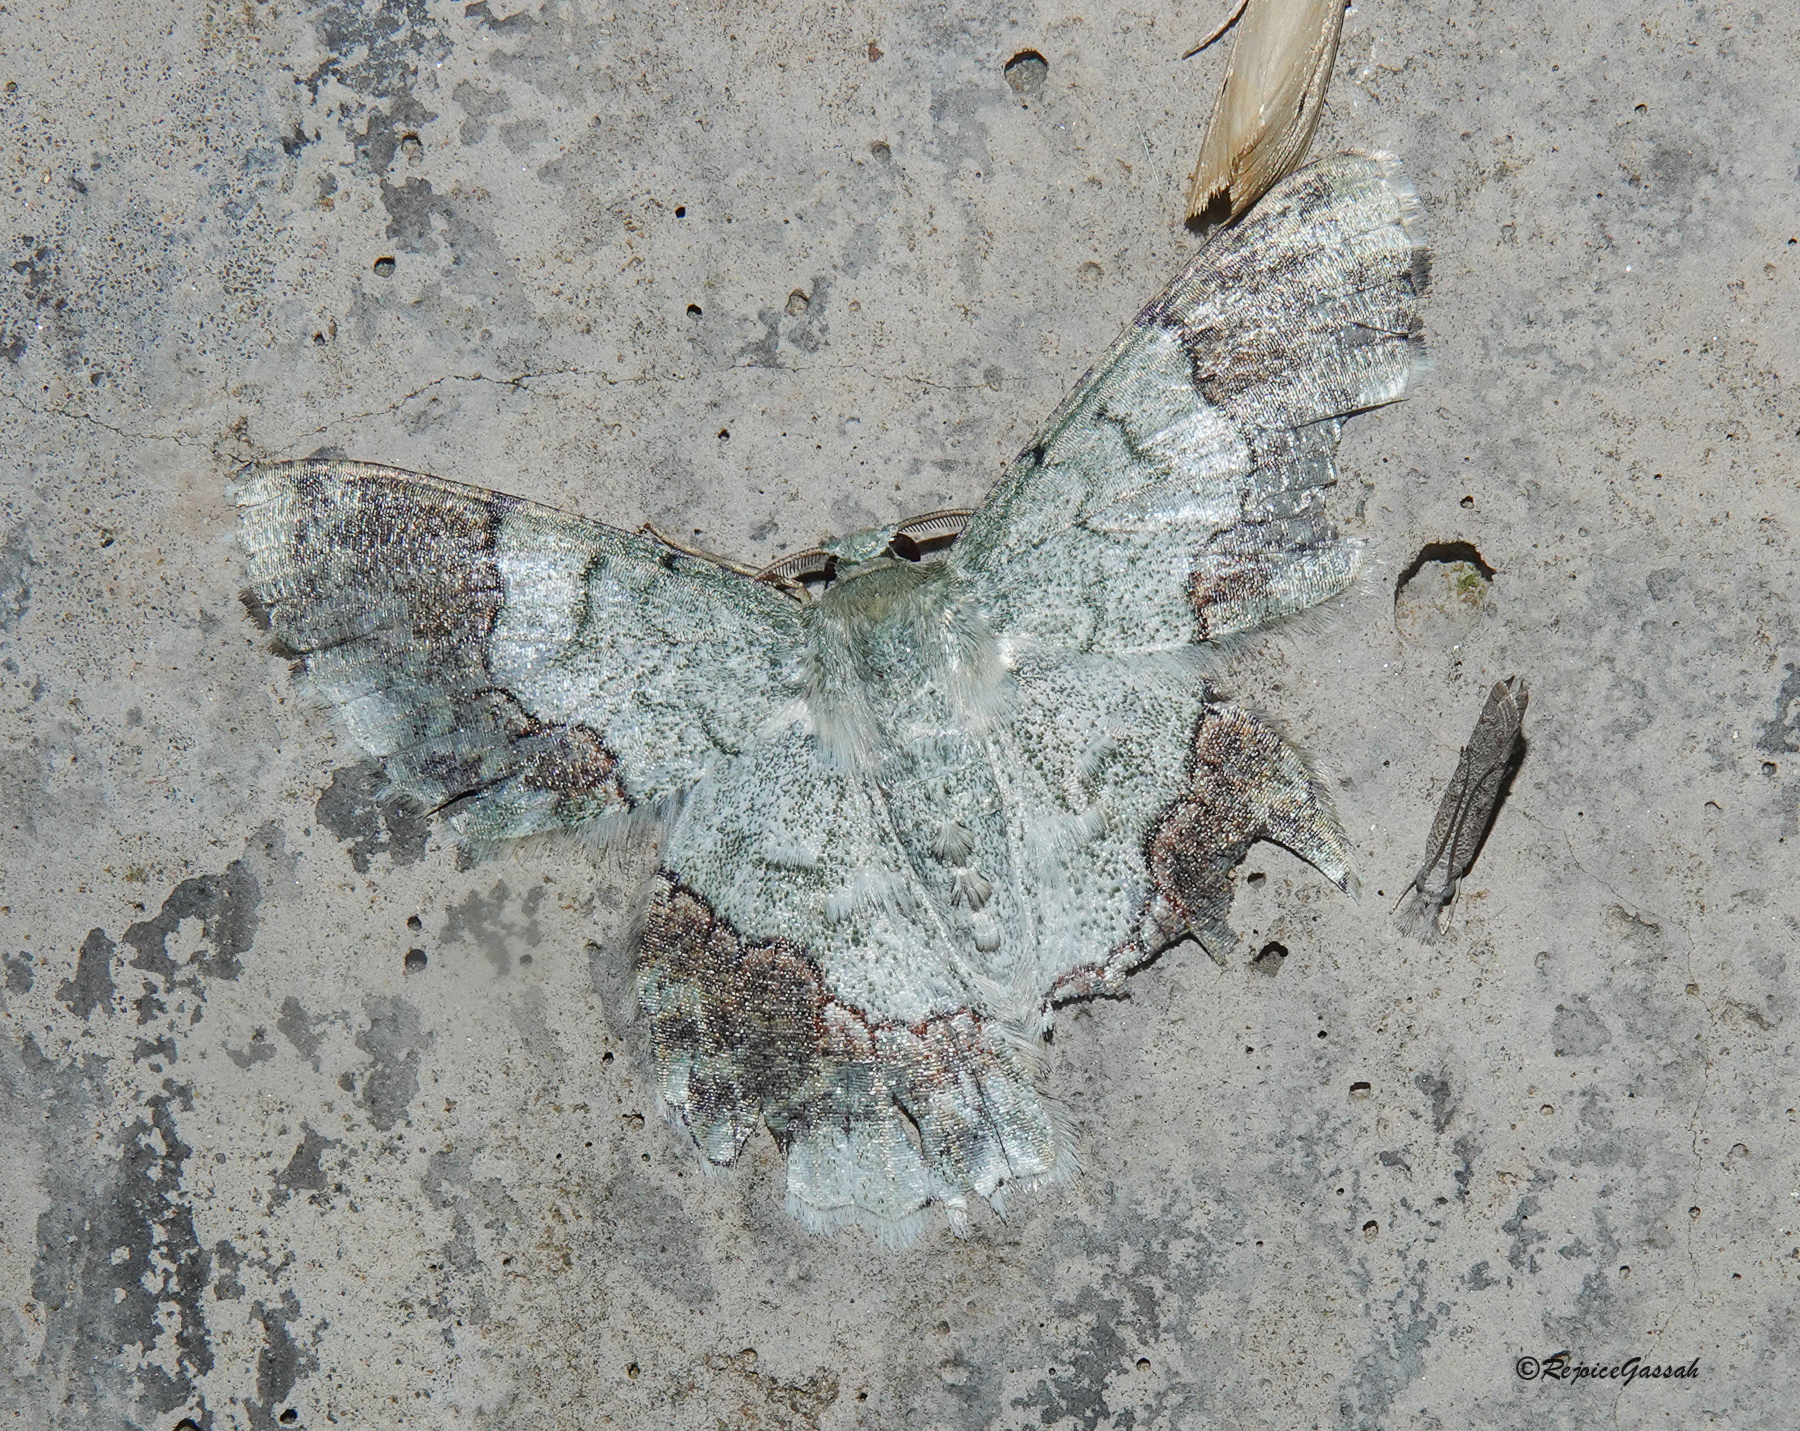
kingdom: Animalia
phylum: Arthropoda
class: Insecta
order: Lepidoptera
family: Geometridae
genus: Pingasa
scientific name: Pingasa ruginaria
